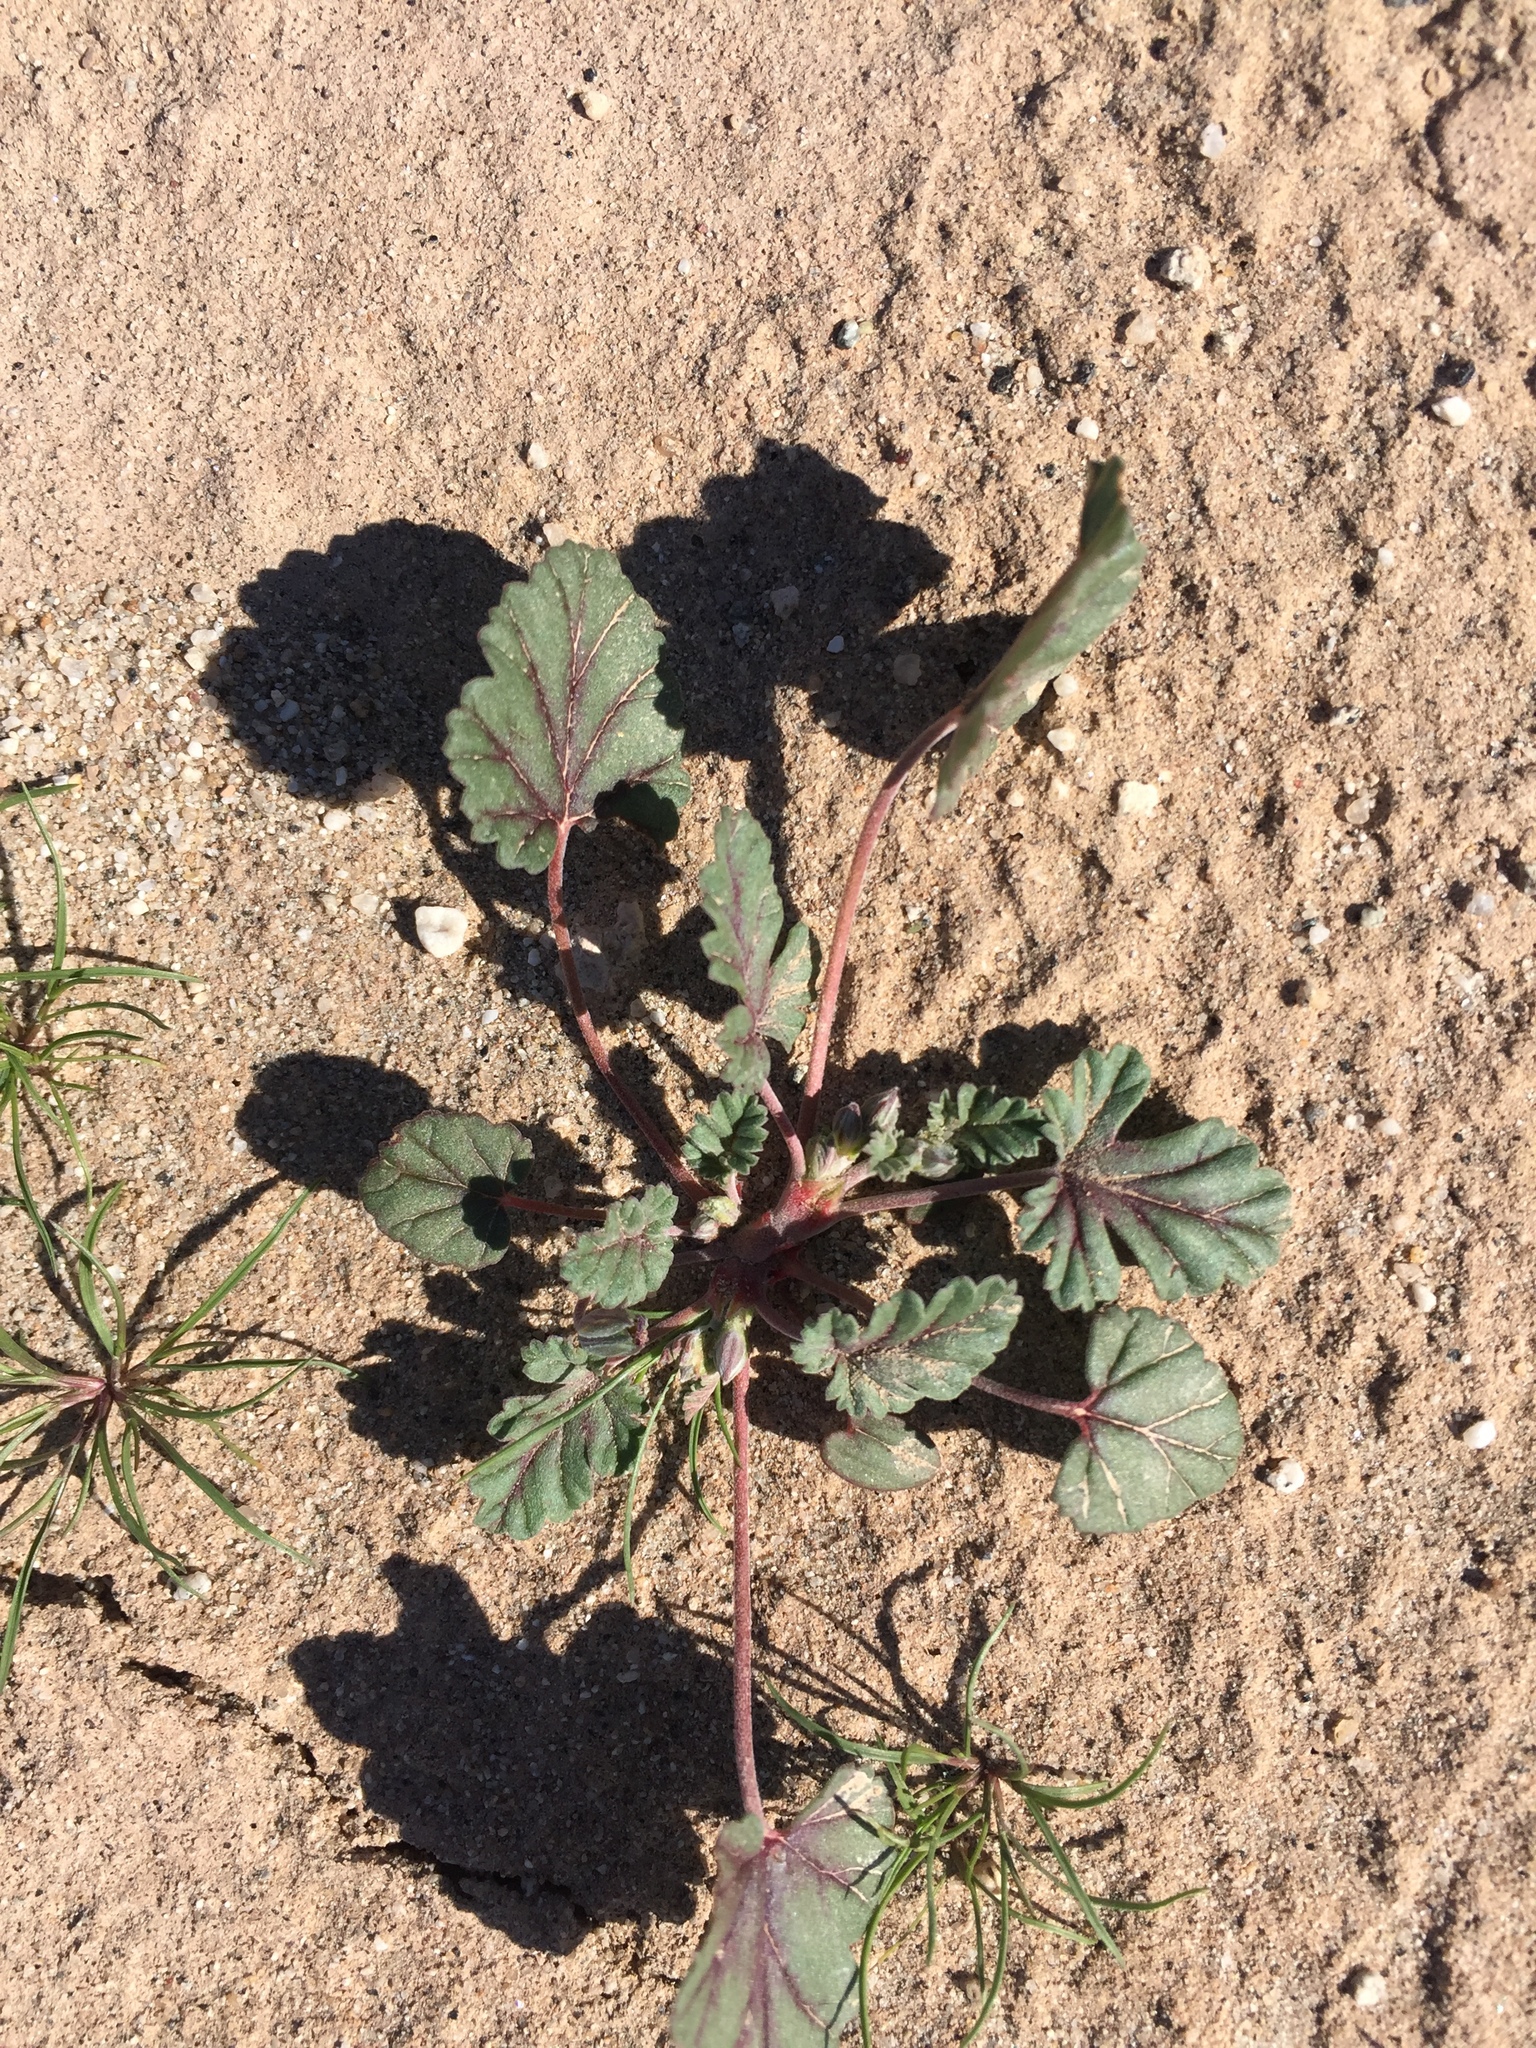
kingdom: Plantae
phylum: Tracheophyta
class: Magnoliopsida
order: Geraniales
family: Geraniaceae
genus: Erodium
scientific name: Erodium texanum
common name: Texas stork's-bill
